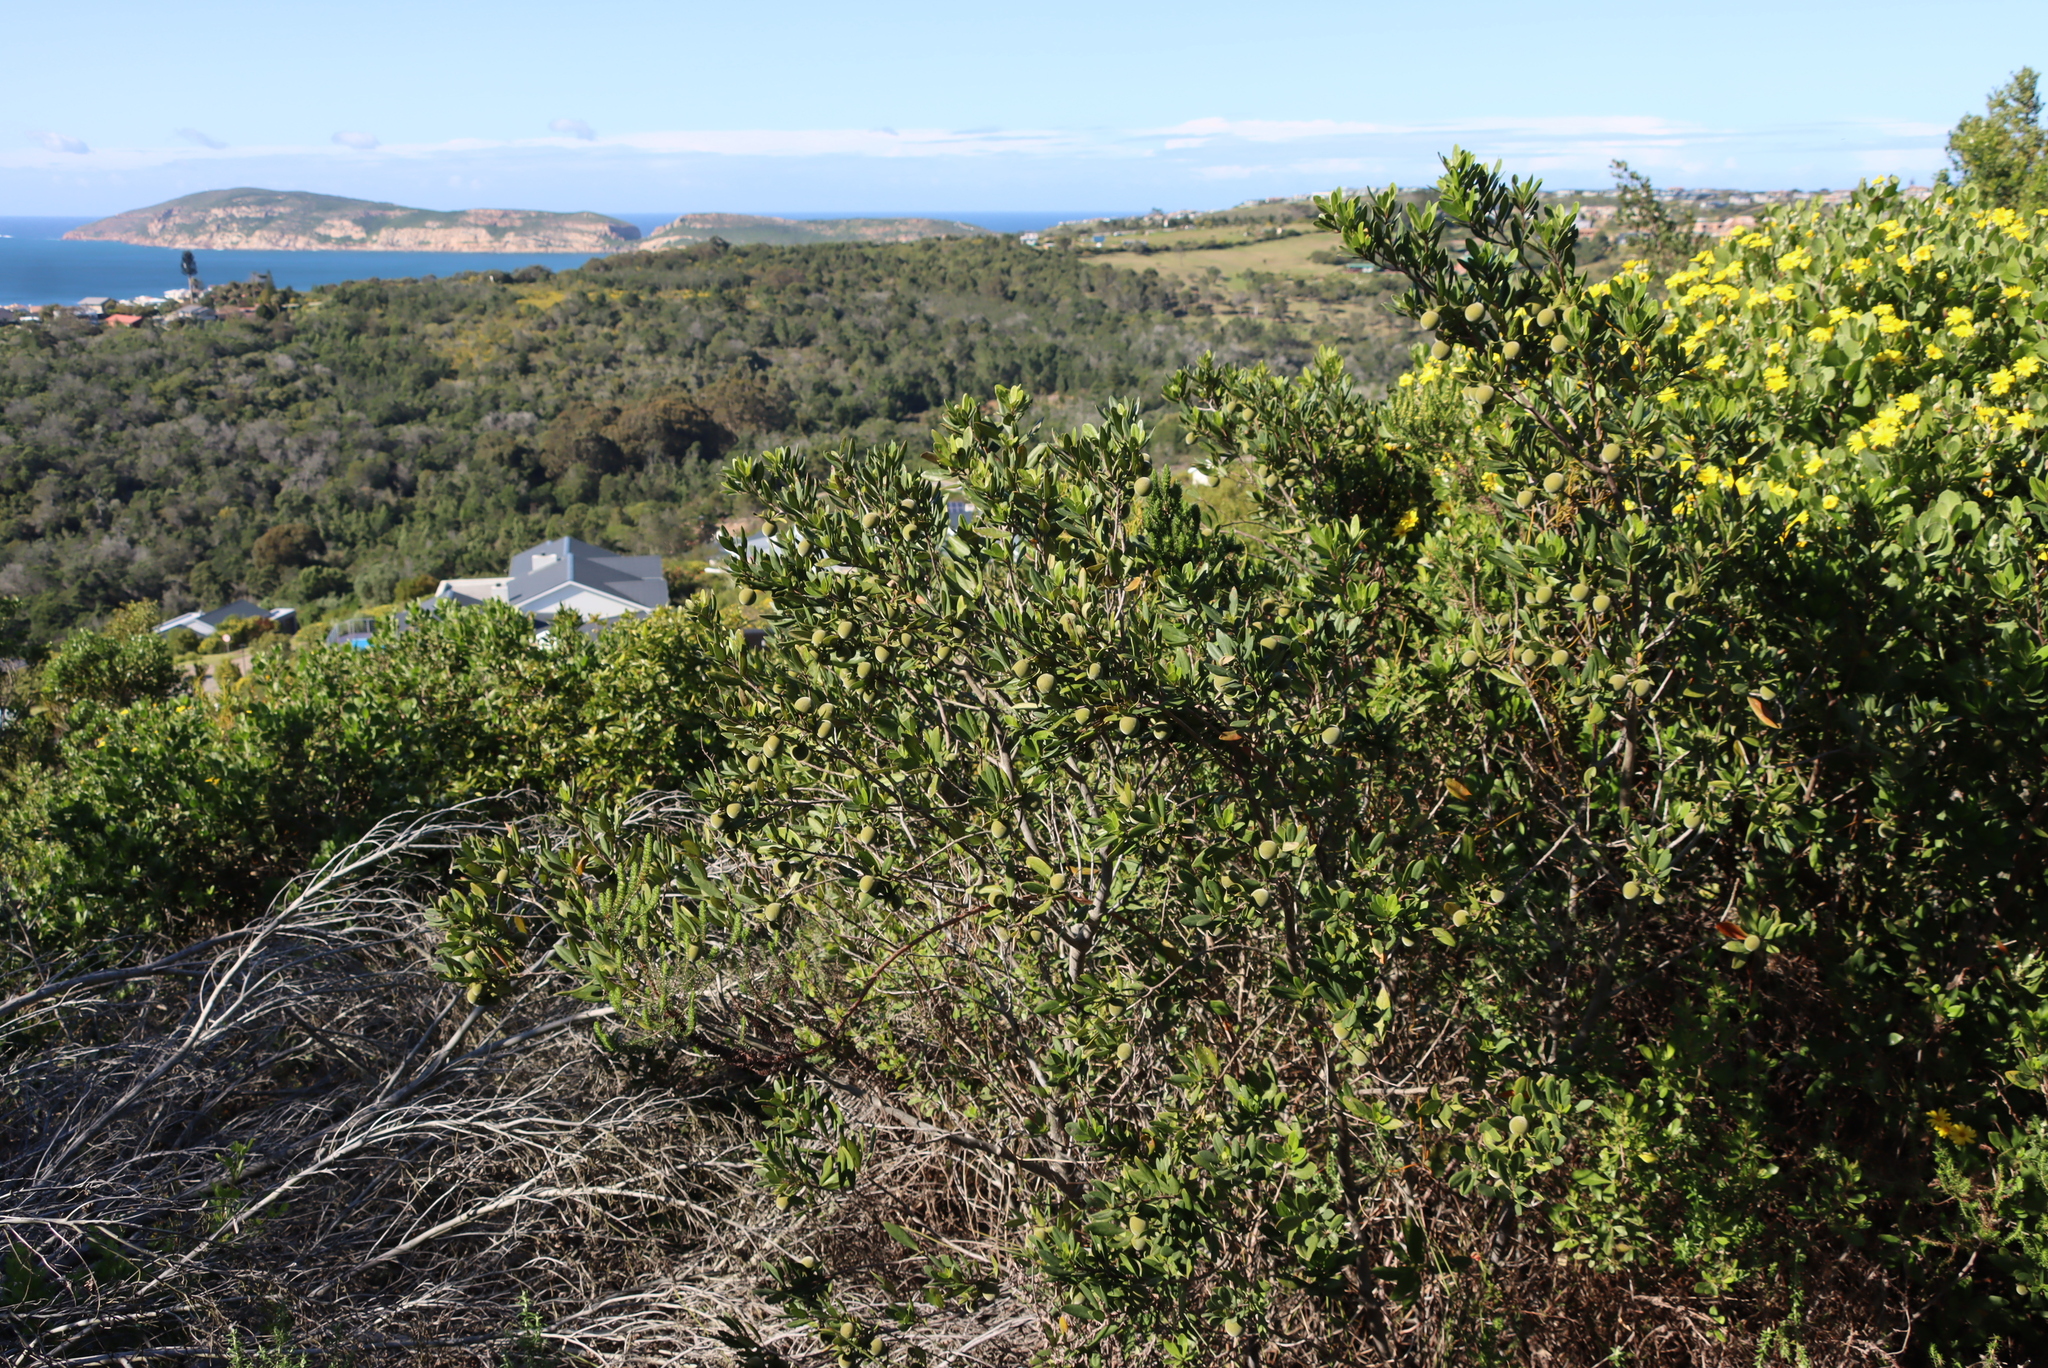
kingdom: Plantae
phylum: Tracheophyta
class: Magnoliopsida
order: Ericales
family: Ebenaceae
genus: Diospyros
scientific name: Diospyros dichrophylla
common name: Common star-apple
